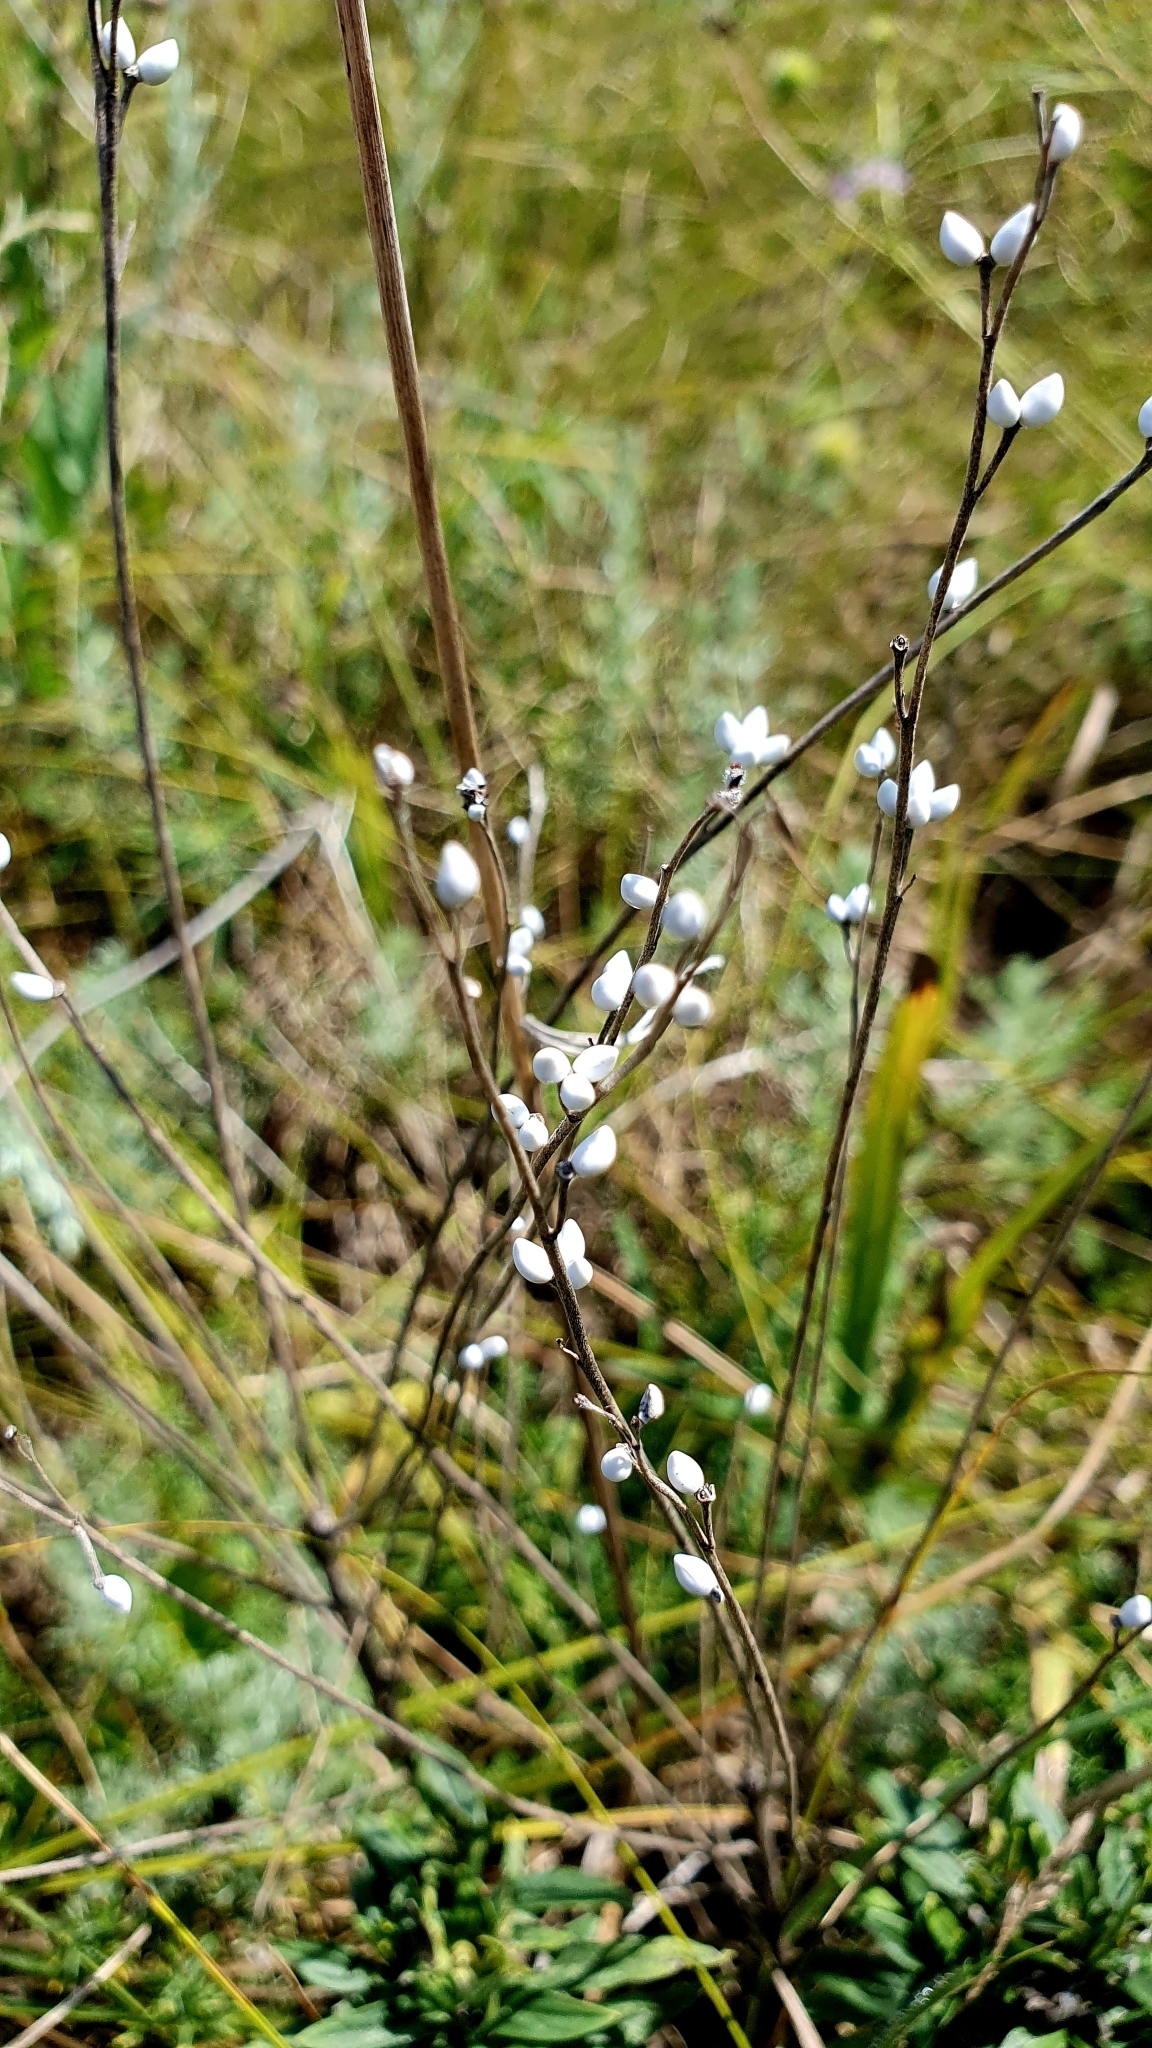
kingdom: Plantae
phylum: Tracheophyta
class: Magnoliopsida
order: Boraginales
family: Boraginaceae
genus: Lithospermum
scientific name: Lithospermum officinale
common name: Common gromwell
